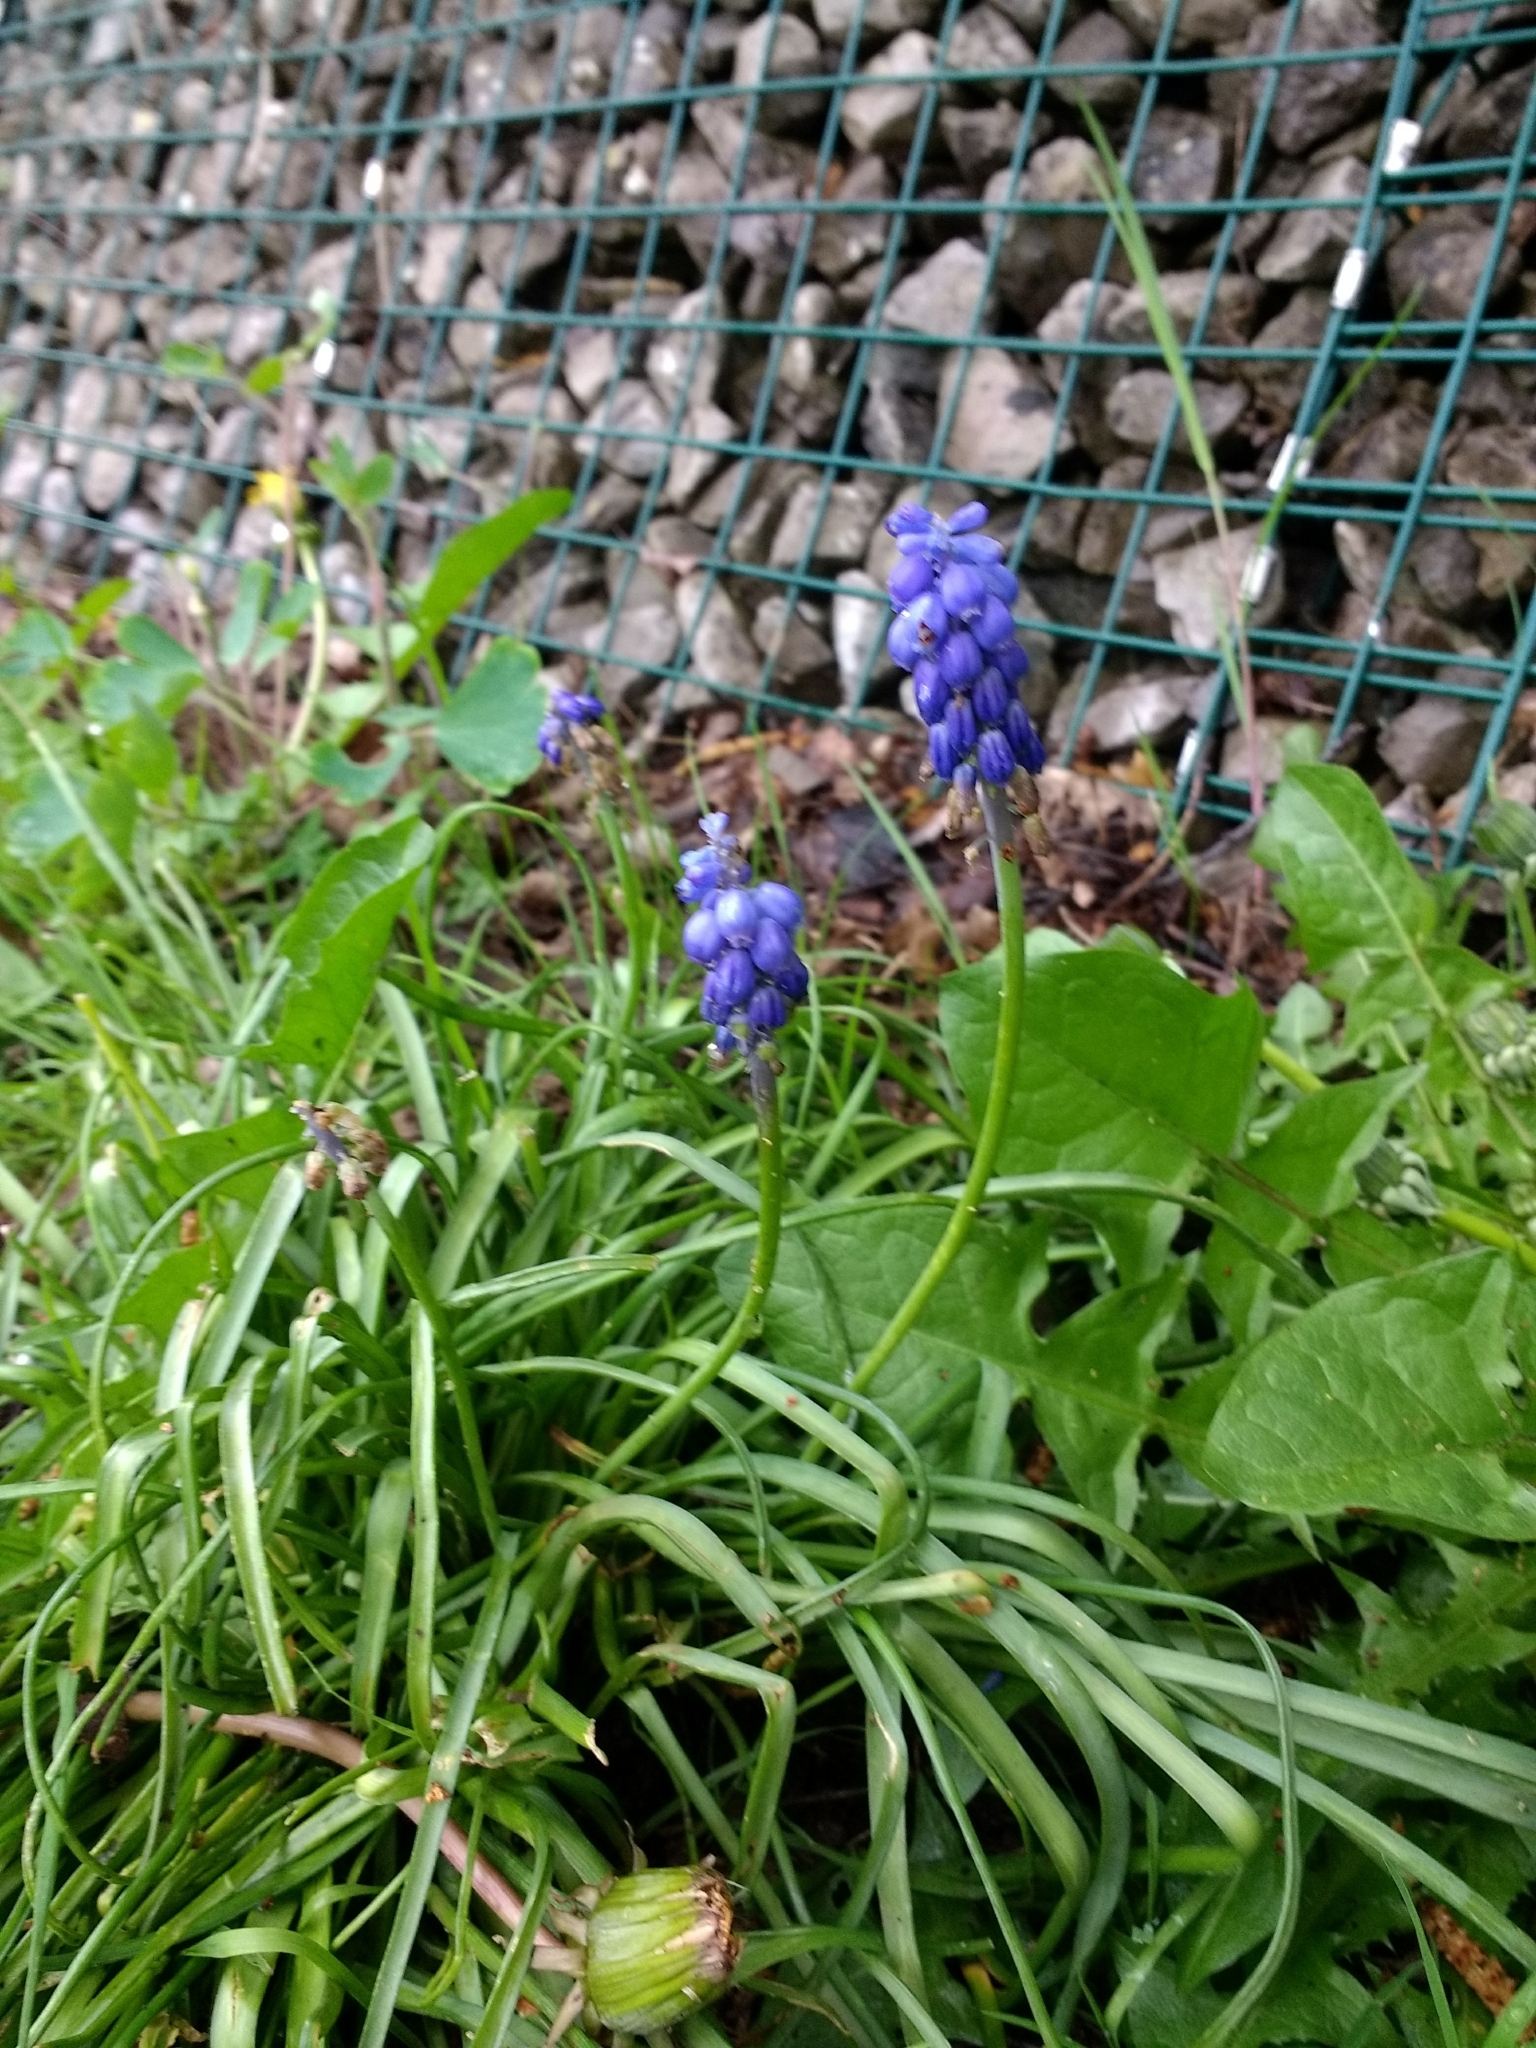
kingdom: Plantae
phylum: Tracheophyta
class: Liliopsida
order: Asparagales
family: Asparagaceae
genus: Muscari
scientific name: Muscari armeniacum
